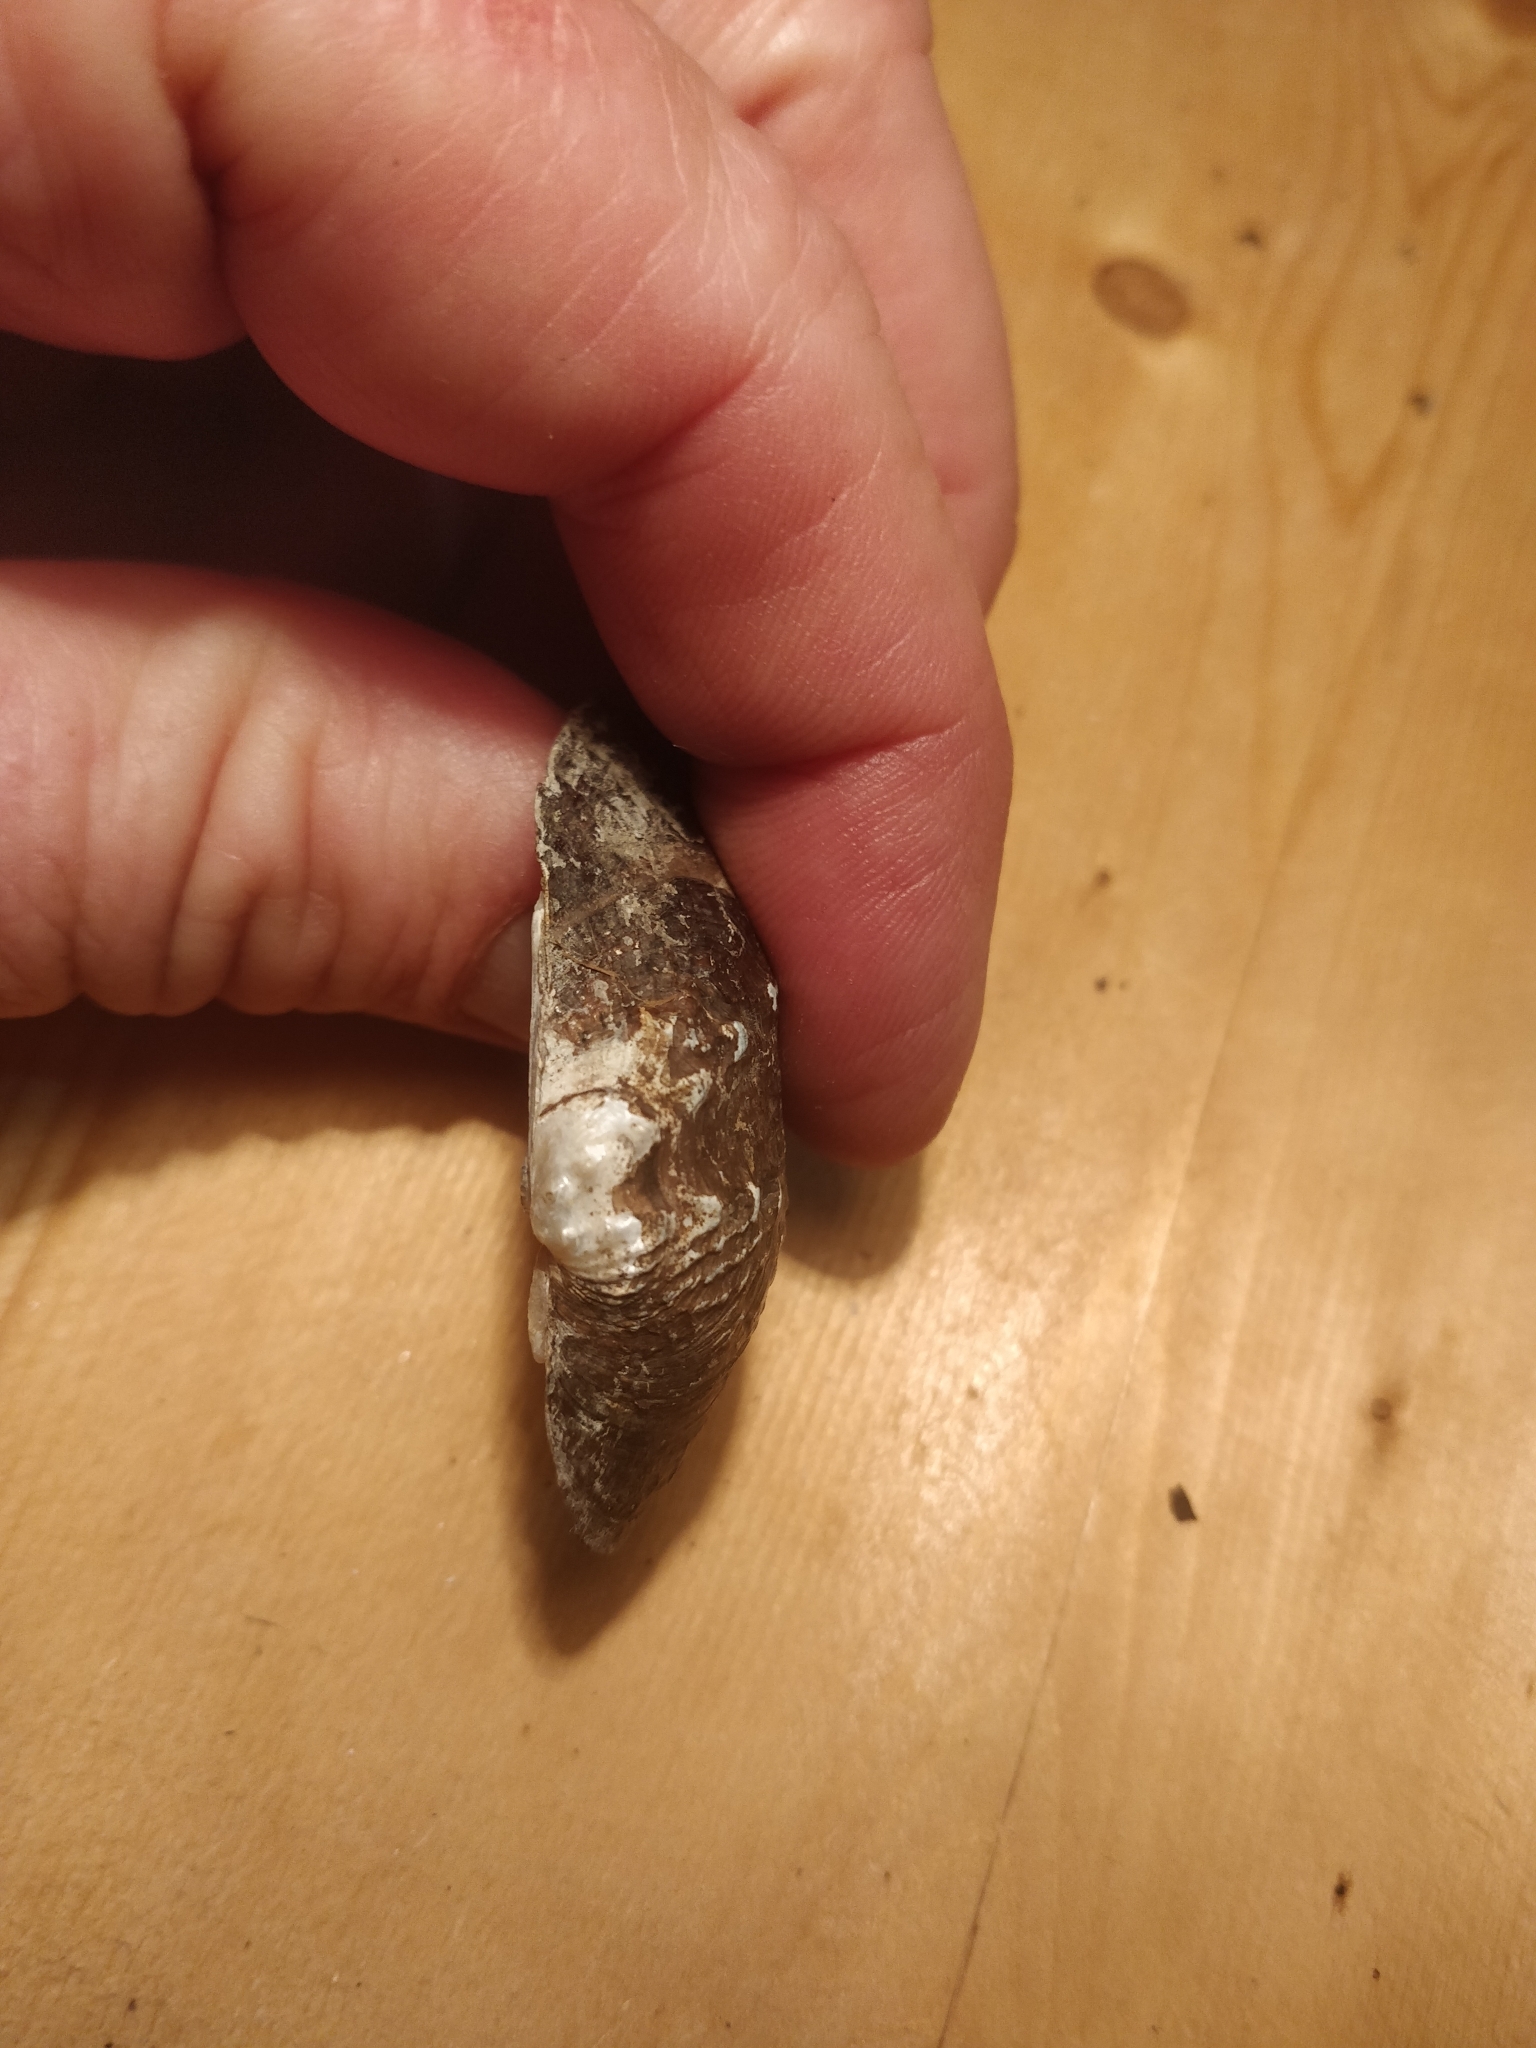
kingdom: Animalia
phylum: Mollusca
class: Bivalvia
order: Unionida
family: Unionidae
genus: Arcidens
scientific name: Arcidens confragosus
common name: Rock pocketbook
